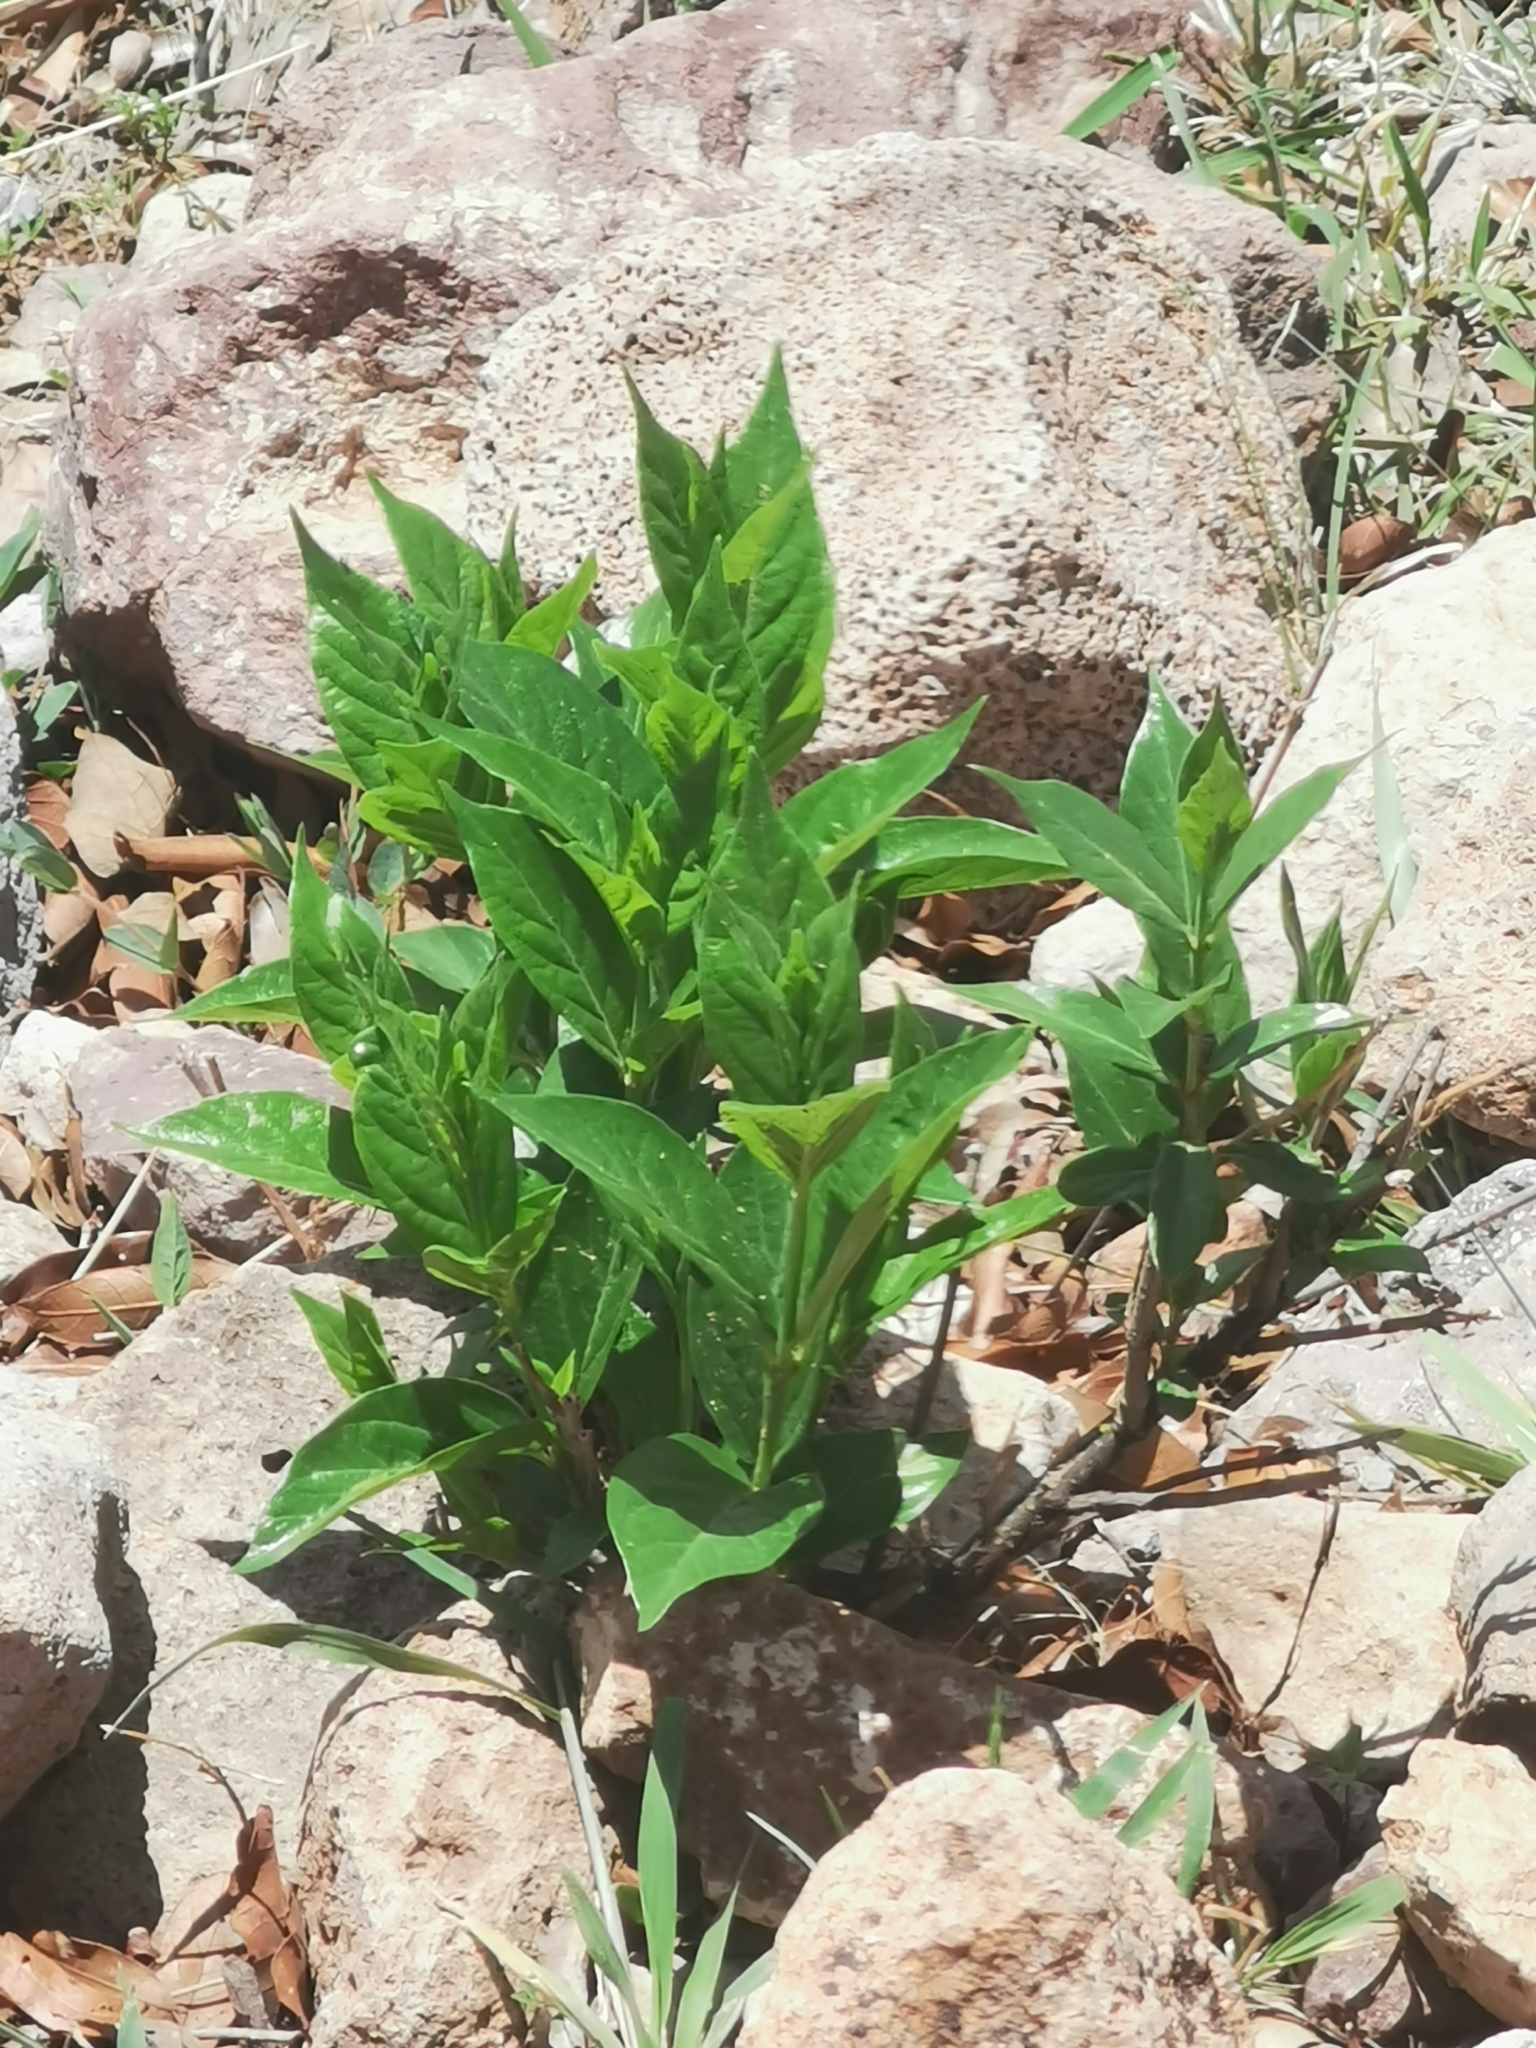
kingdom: Plantae
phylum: Tracheophyta
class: Magnoliopsida
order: Gentianales
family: Apocynaceae
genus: Mandevilla
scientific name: Mandevilla foliosa
